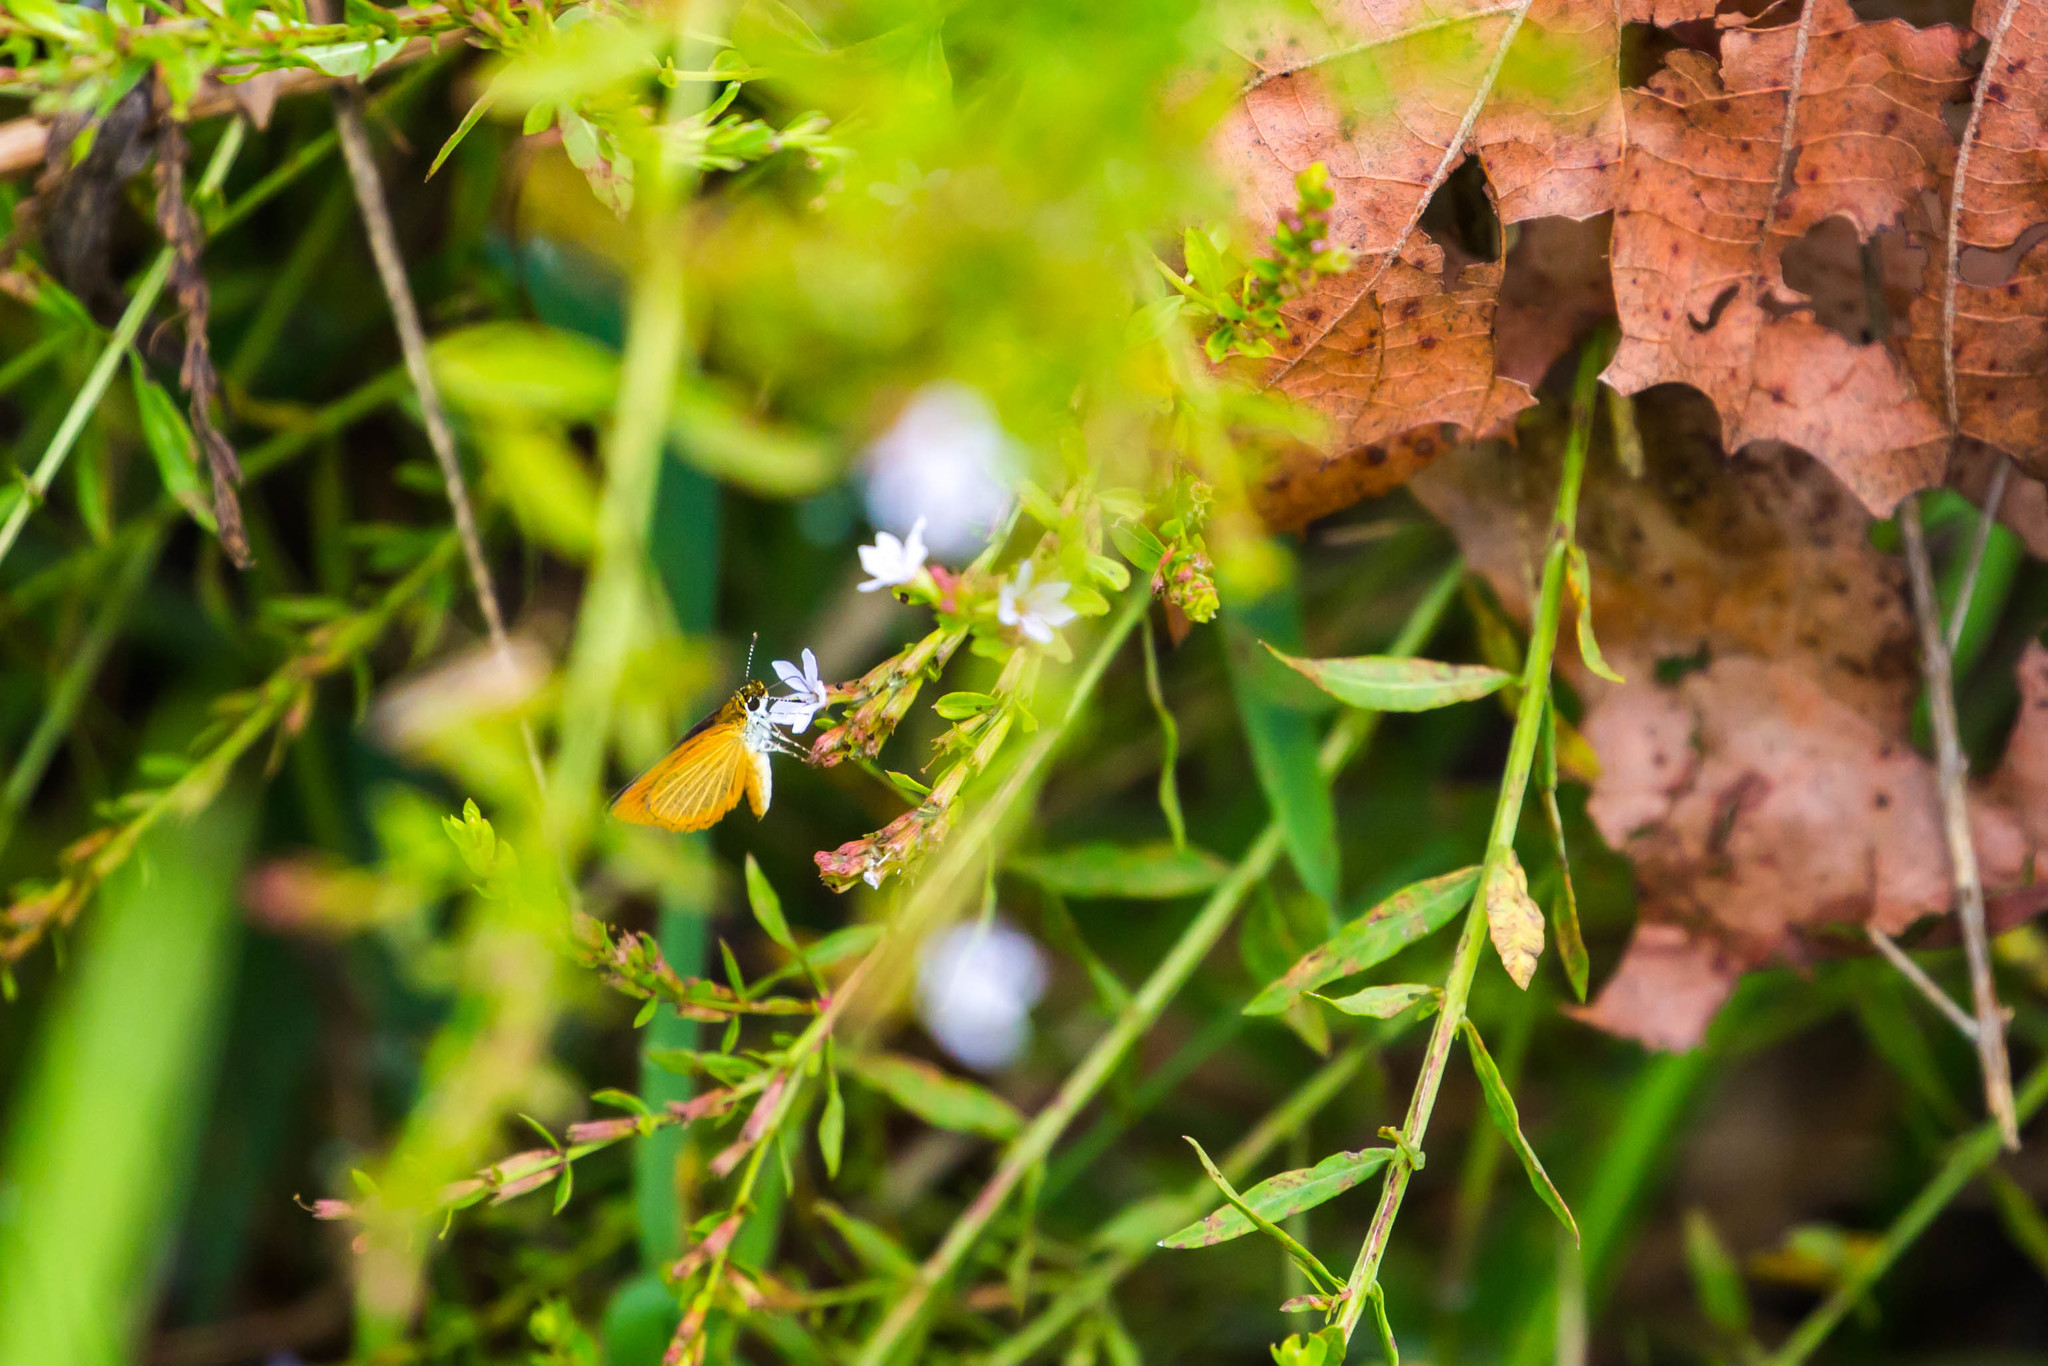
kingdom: Animalia
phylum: Arthropoda
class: Insecta
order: Lepidoptera
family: Hesperiidae
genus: Ancyloxypha
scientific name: Ancyloxypha numitor
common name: Least skipper
